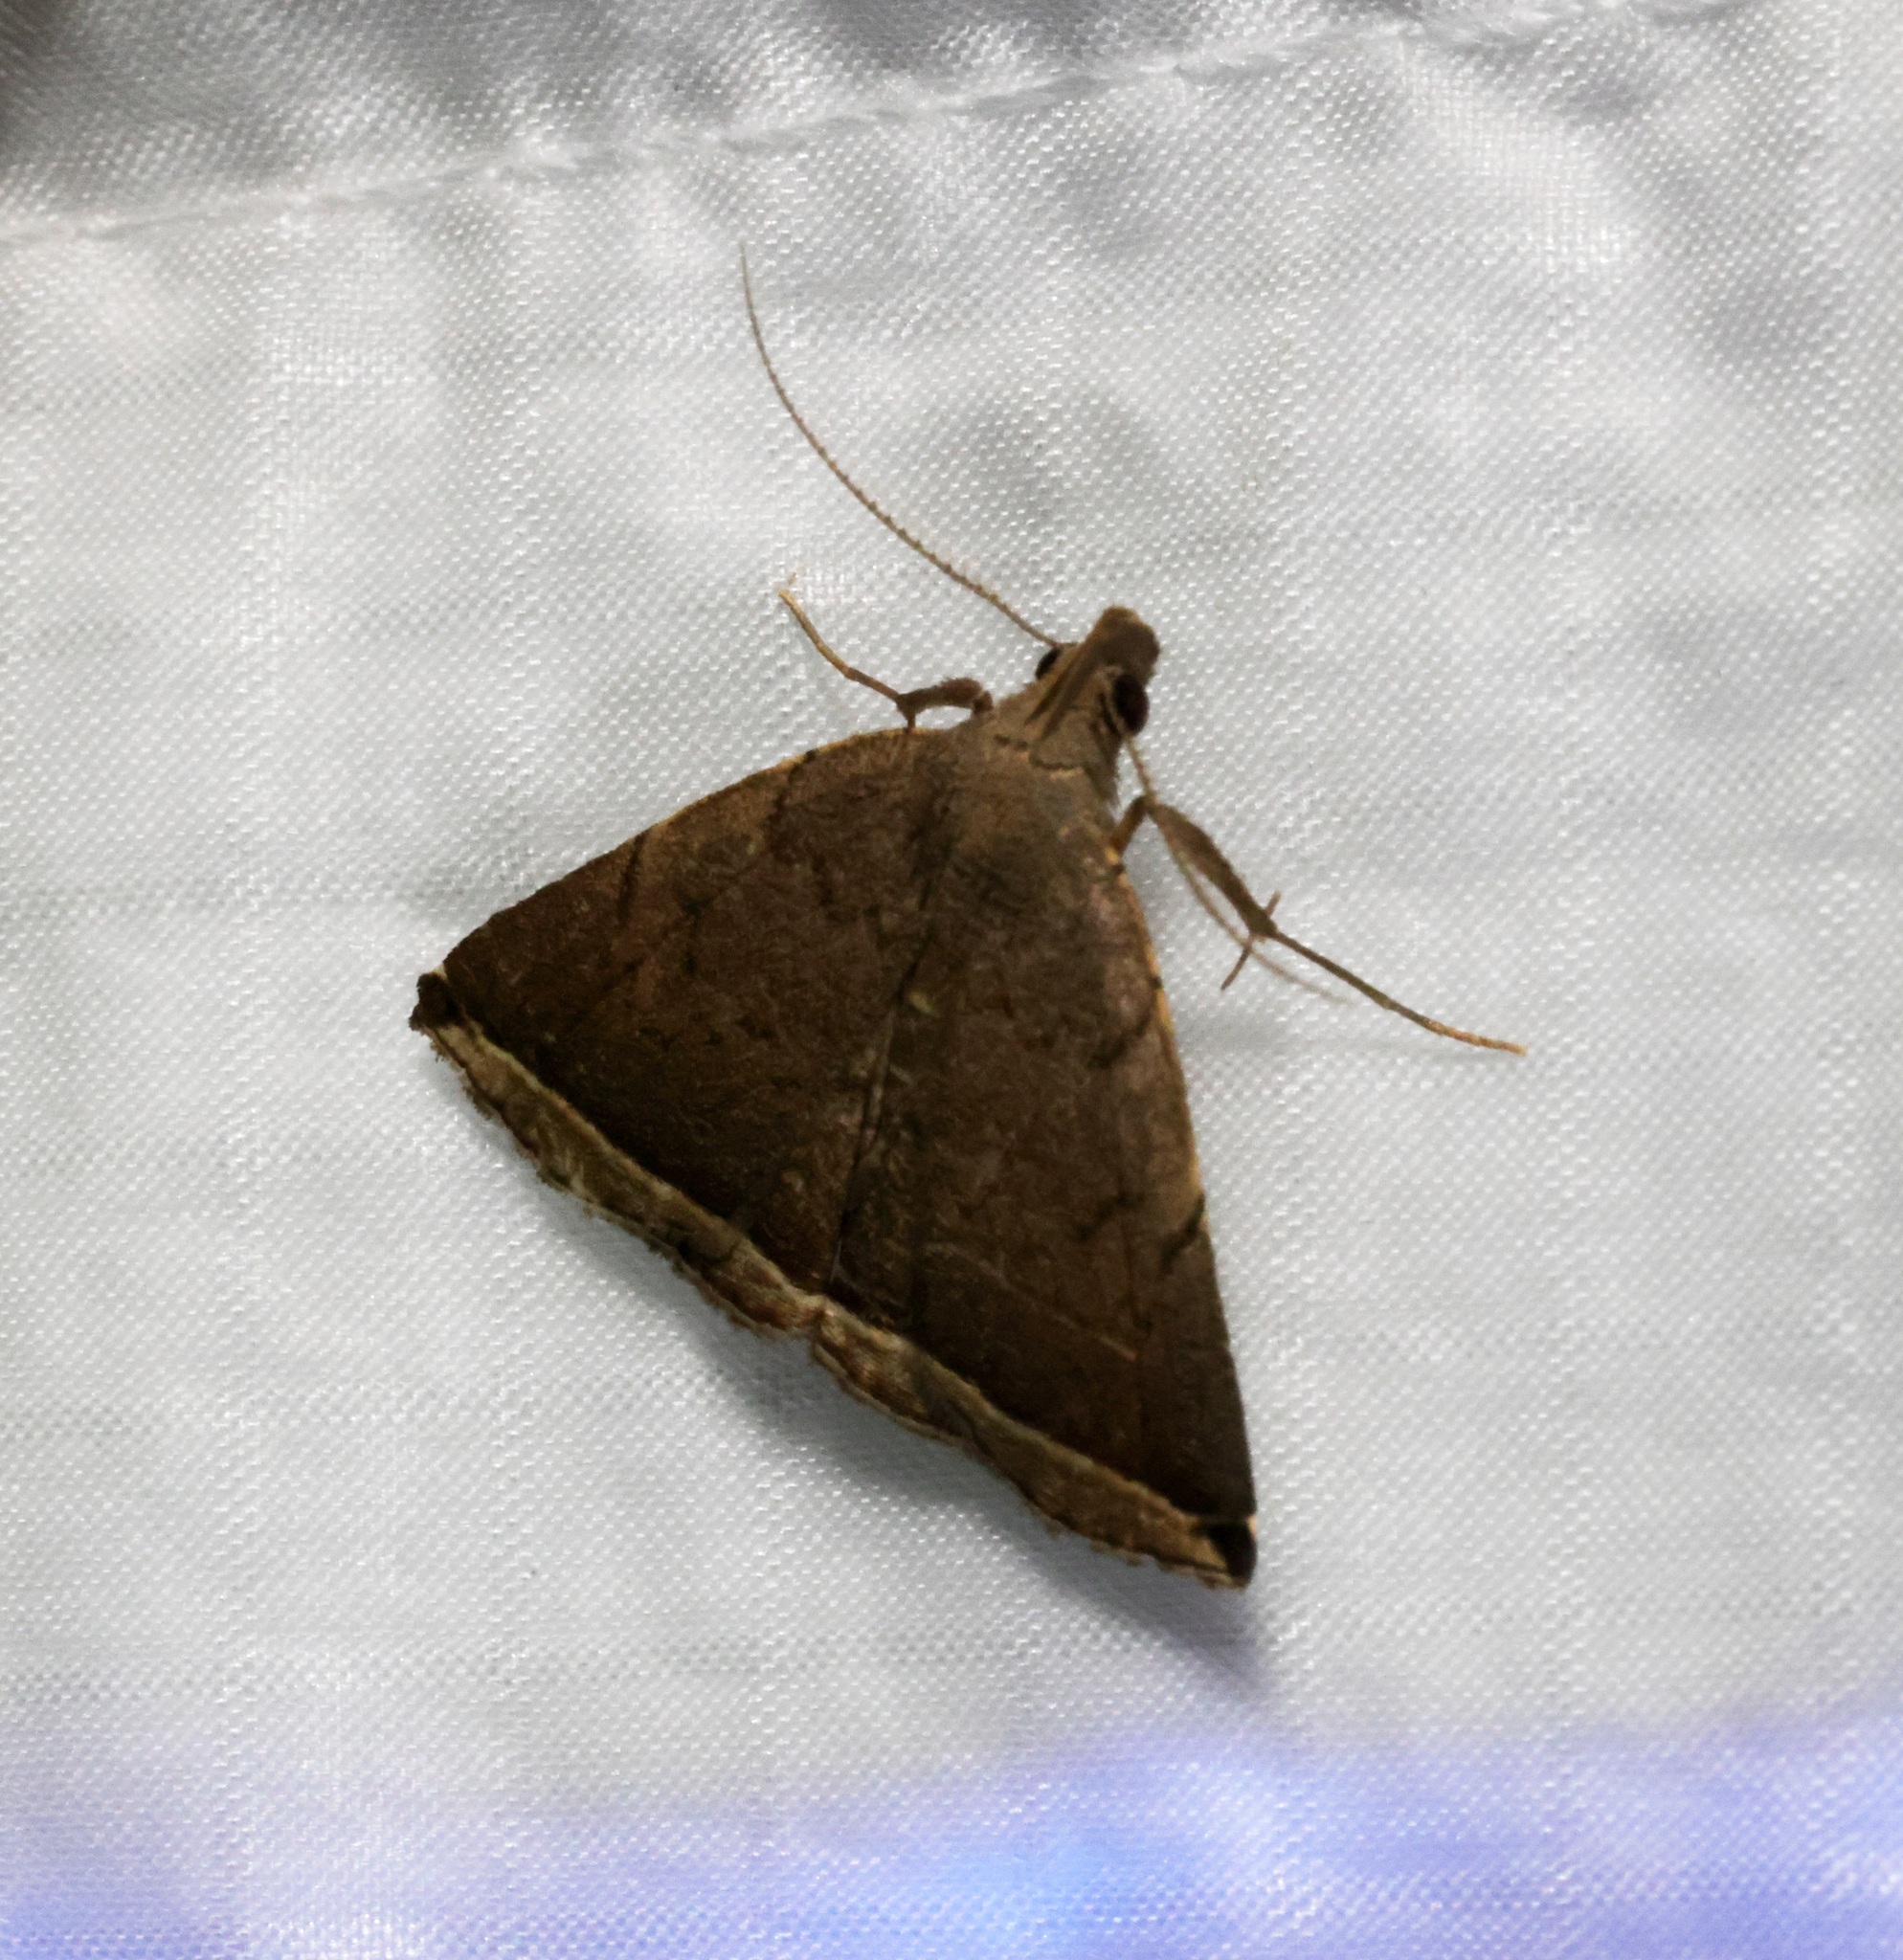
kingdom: Animalia
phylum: Arthropoda
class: Insecta
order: Lepidoptera
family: Erebidae
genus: Lysimelia
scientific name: Lysimelia alstoni
